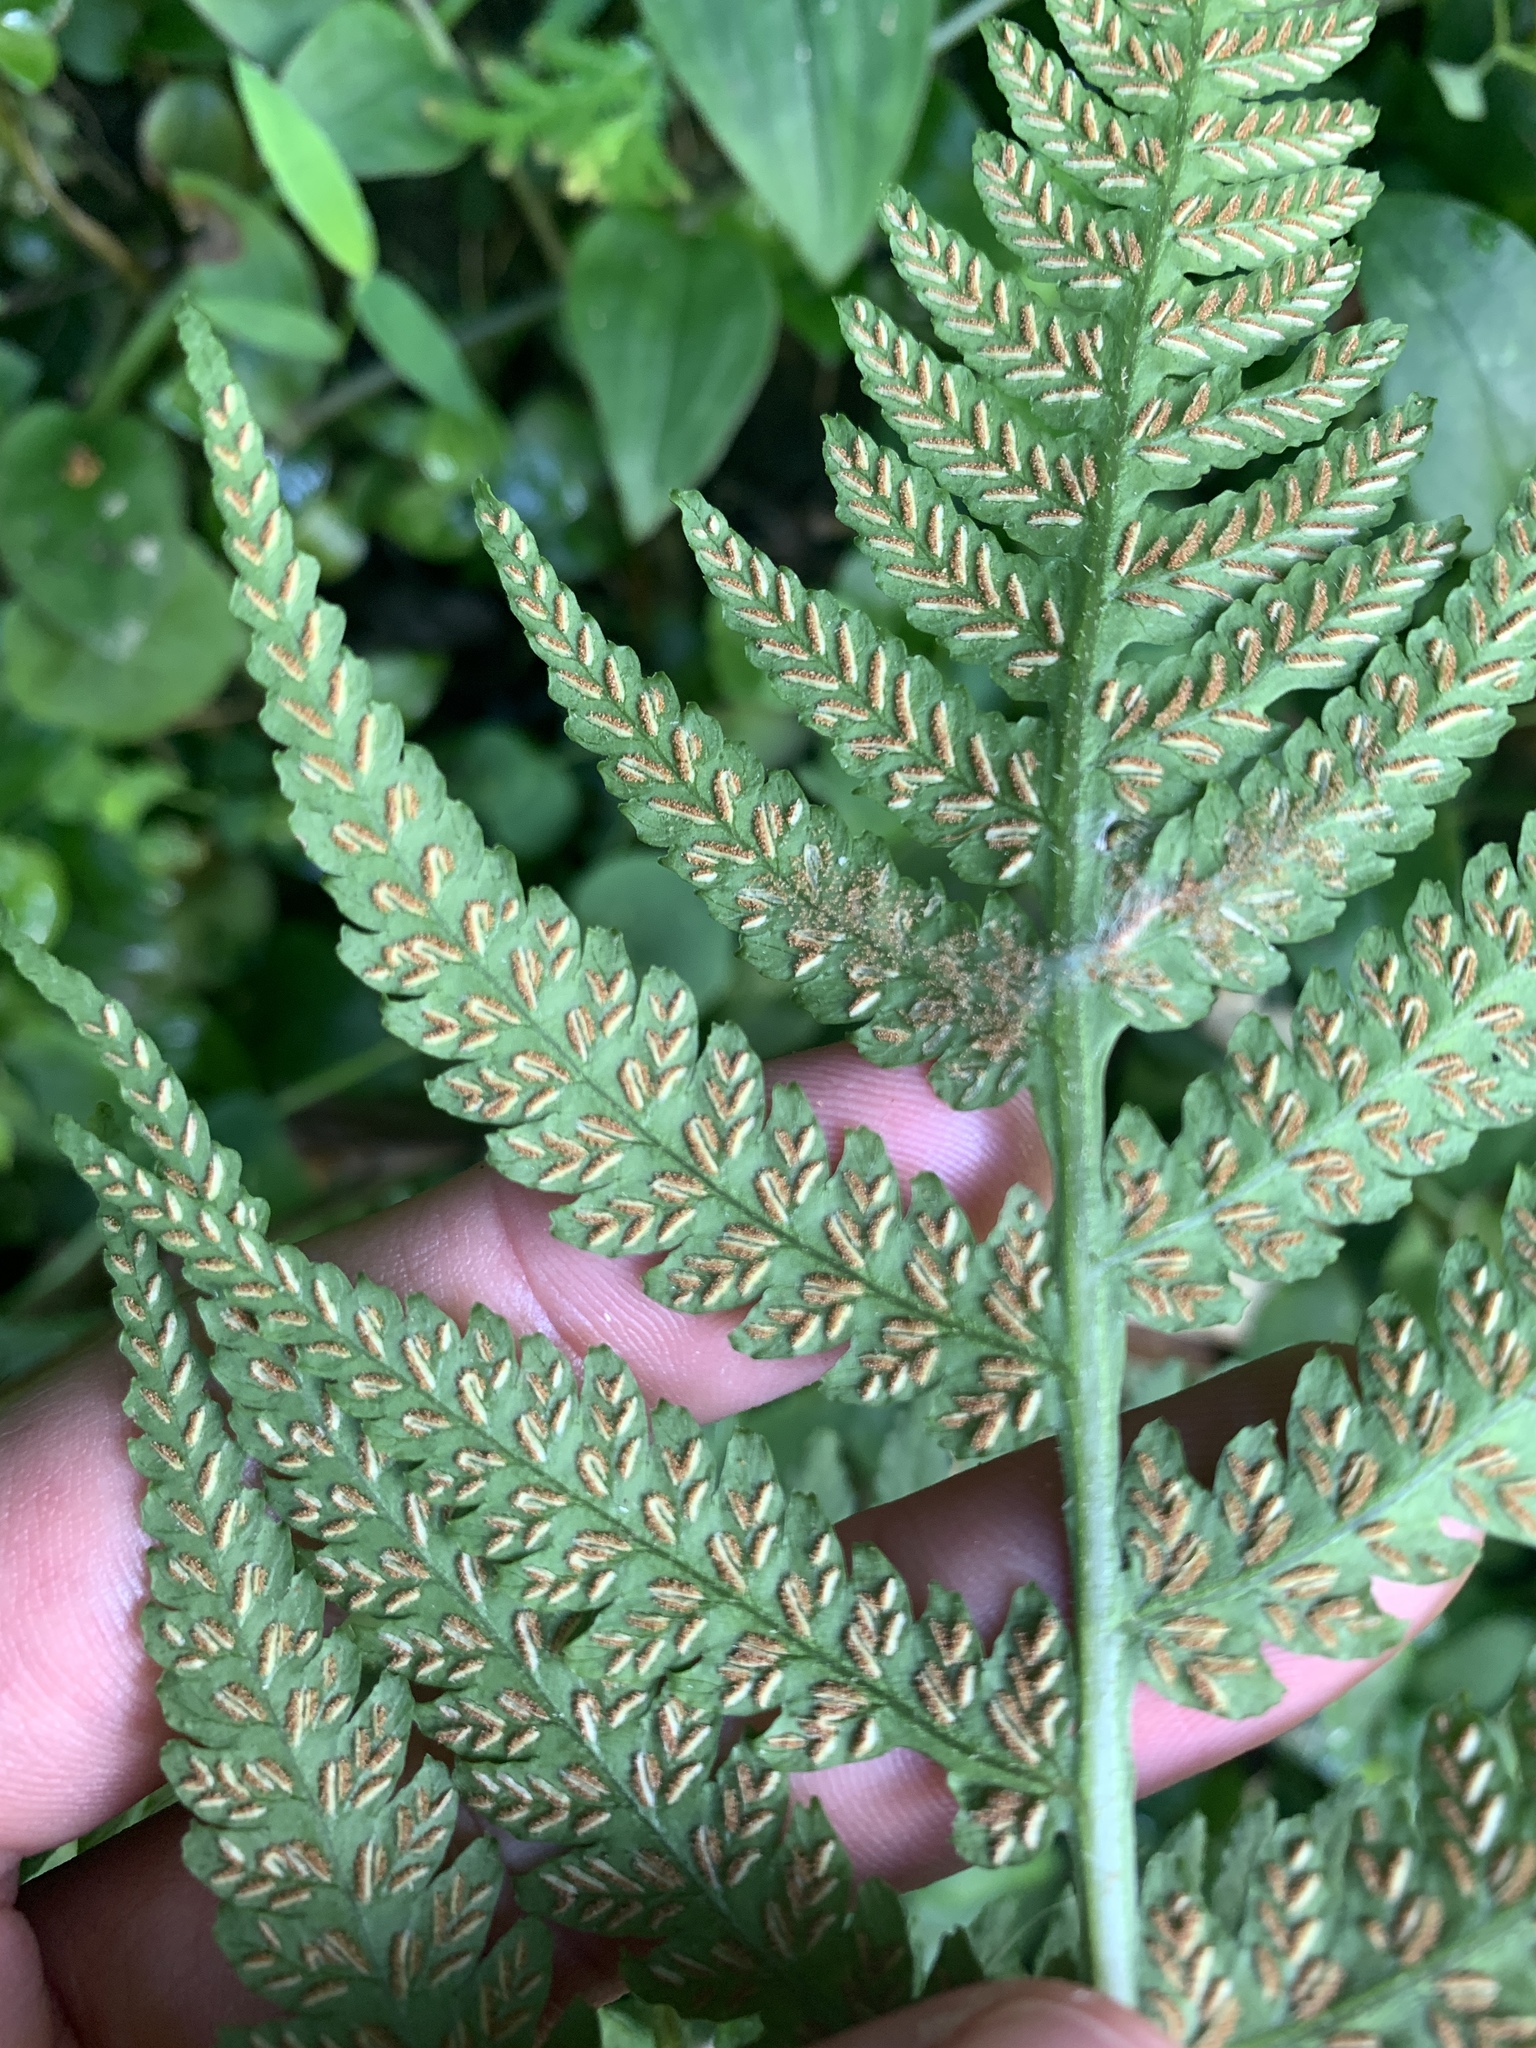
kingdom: Plantae
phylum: Tracheophyta
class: Polypodiopsida
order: Polypodiales
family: Athyriaceae
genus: Deparia
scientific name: Deparia petersenii
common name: Japanese false spleenwort
